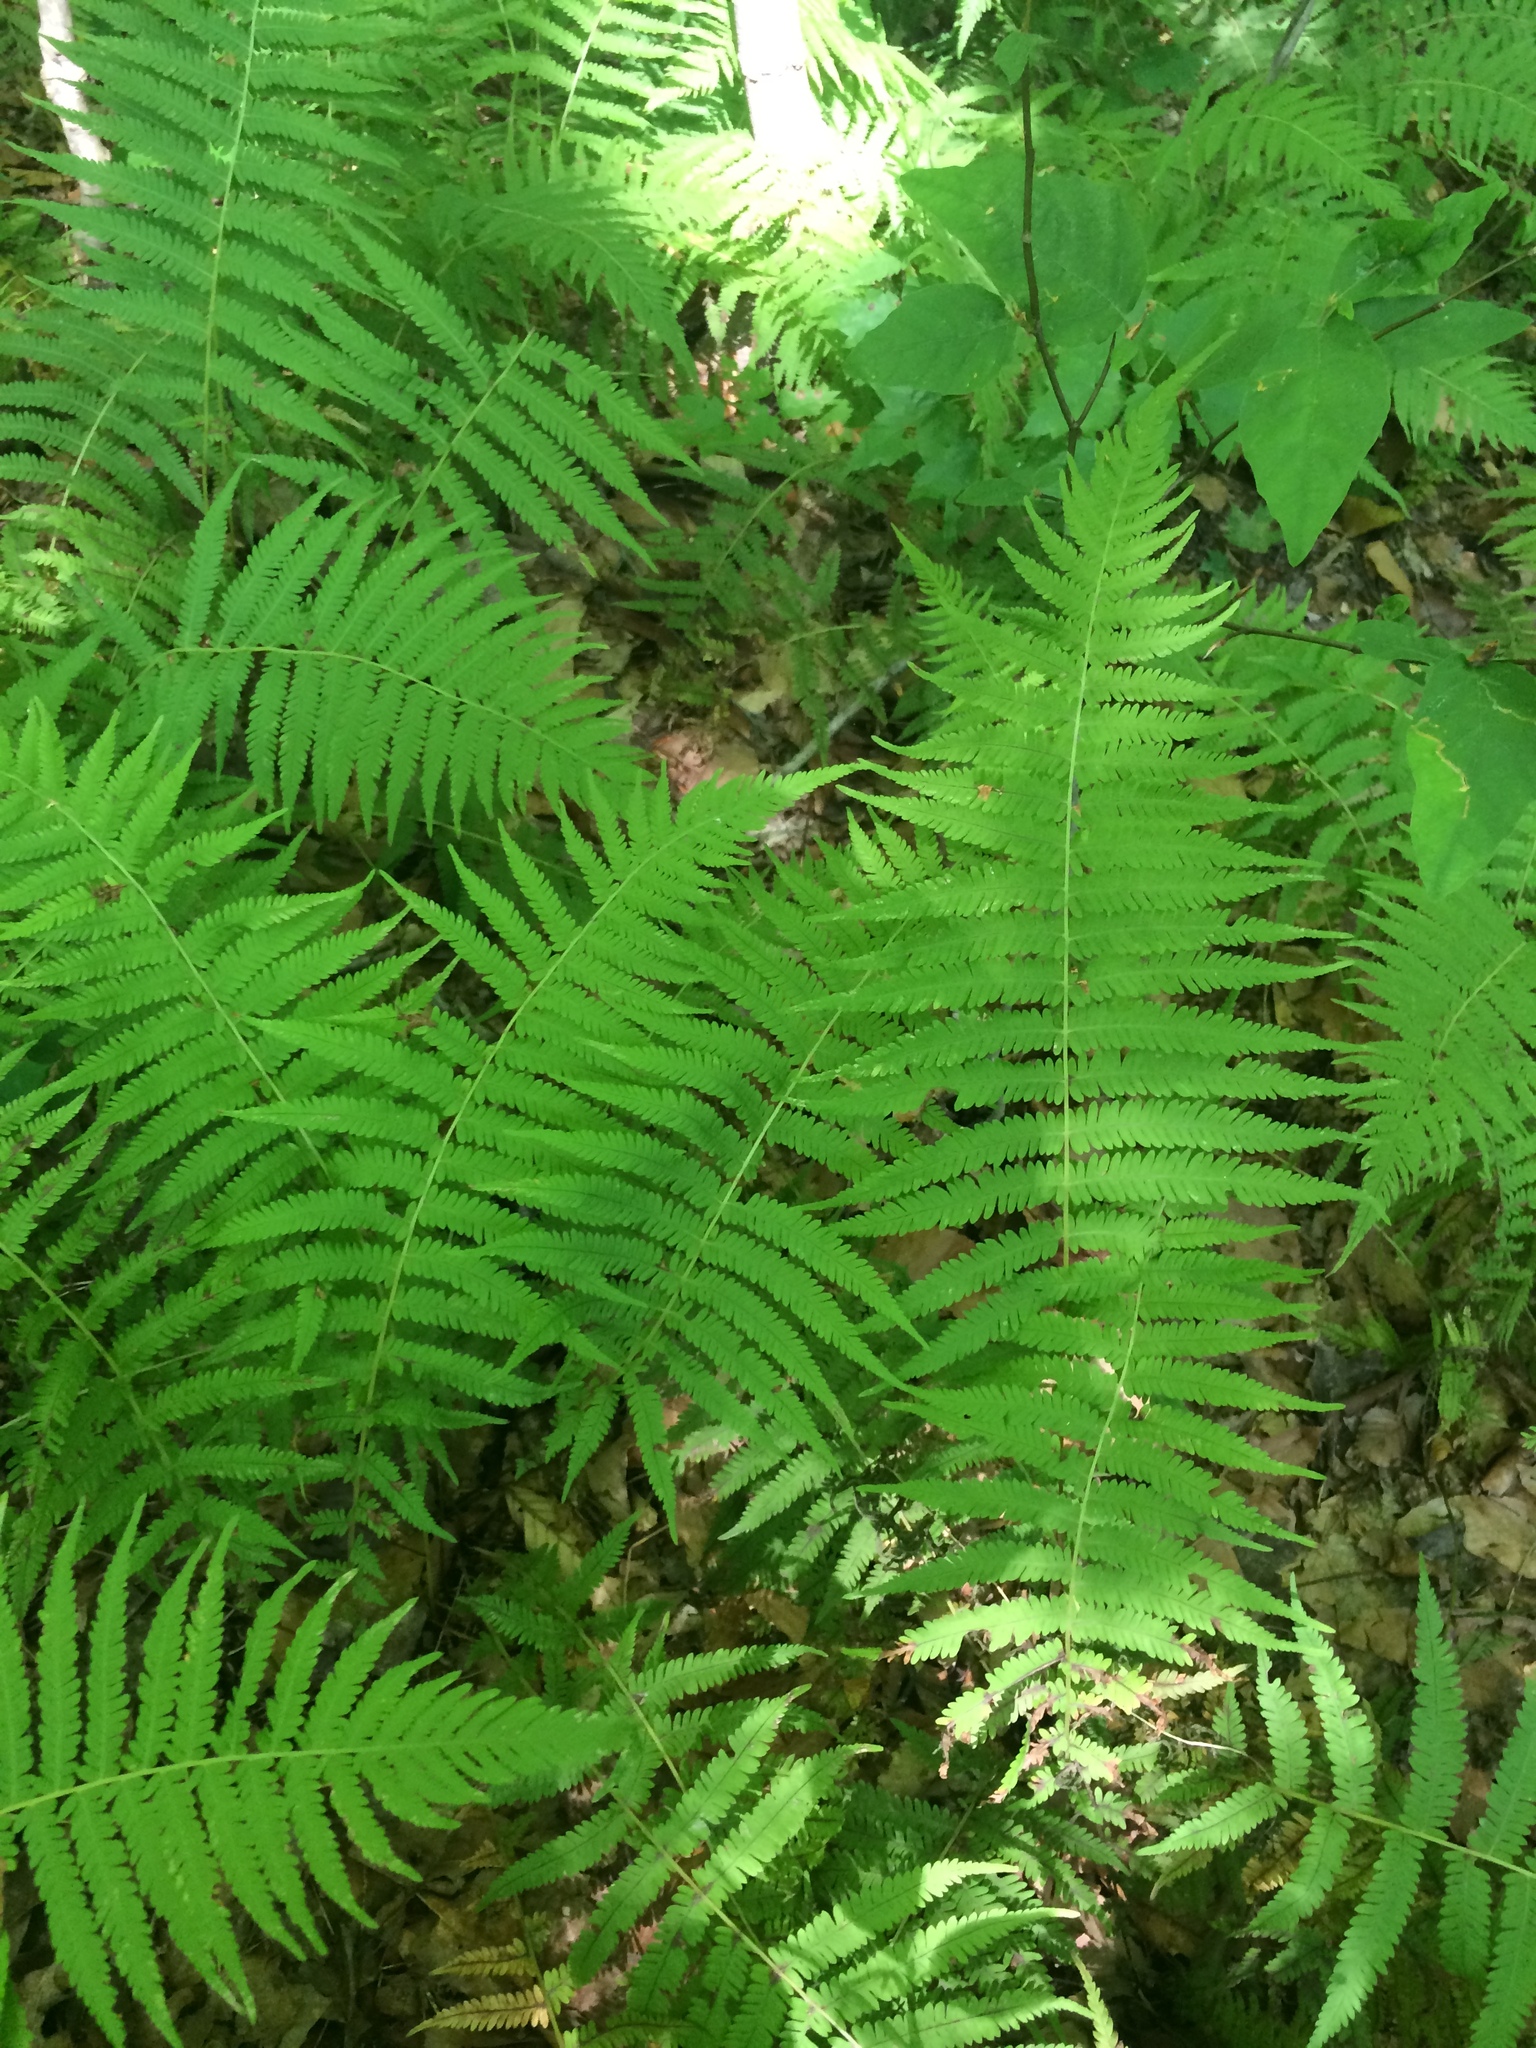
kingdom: Plantae
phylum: Tracheophyta
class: Polypodiopsida
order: Polypodiales
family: Thelypteridaceae
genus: Amauropelta
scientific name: Amauropelta noveboracensis
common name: New york fern
